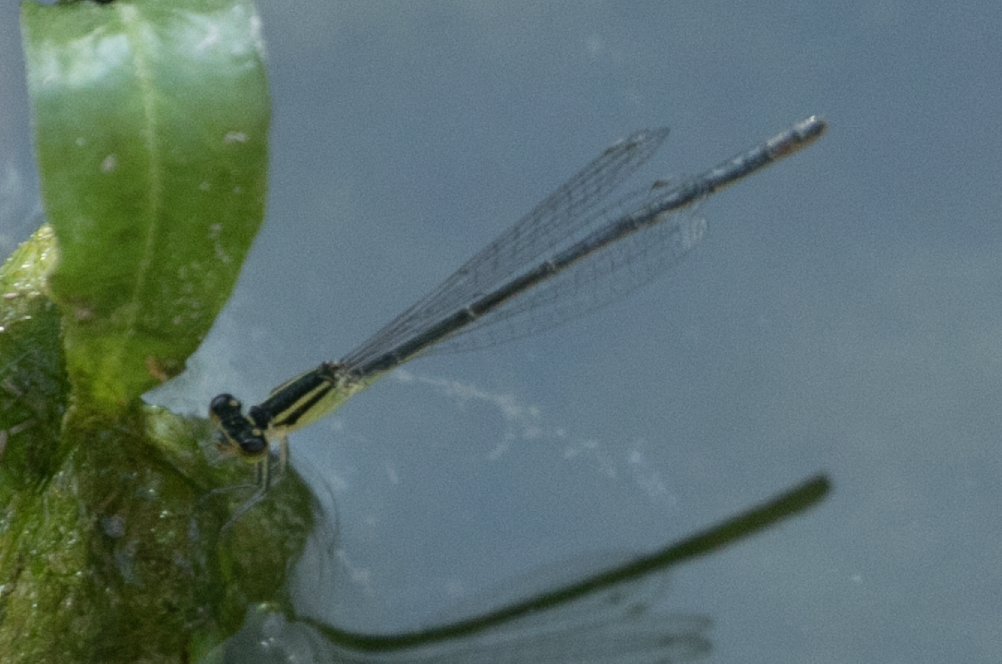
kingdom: Animalia
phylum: Arthropoda
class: Insecta
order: Odonata
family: Coenagrionidae
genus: Ischnura
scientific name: Ischnura elegans
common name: Blue-tailed damselfly
